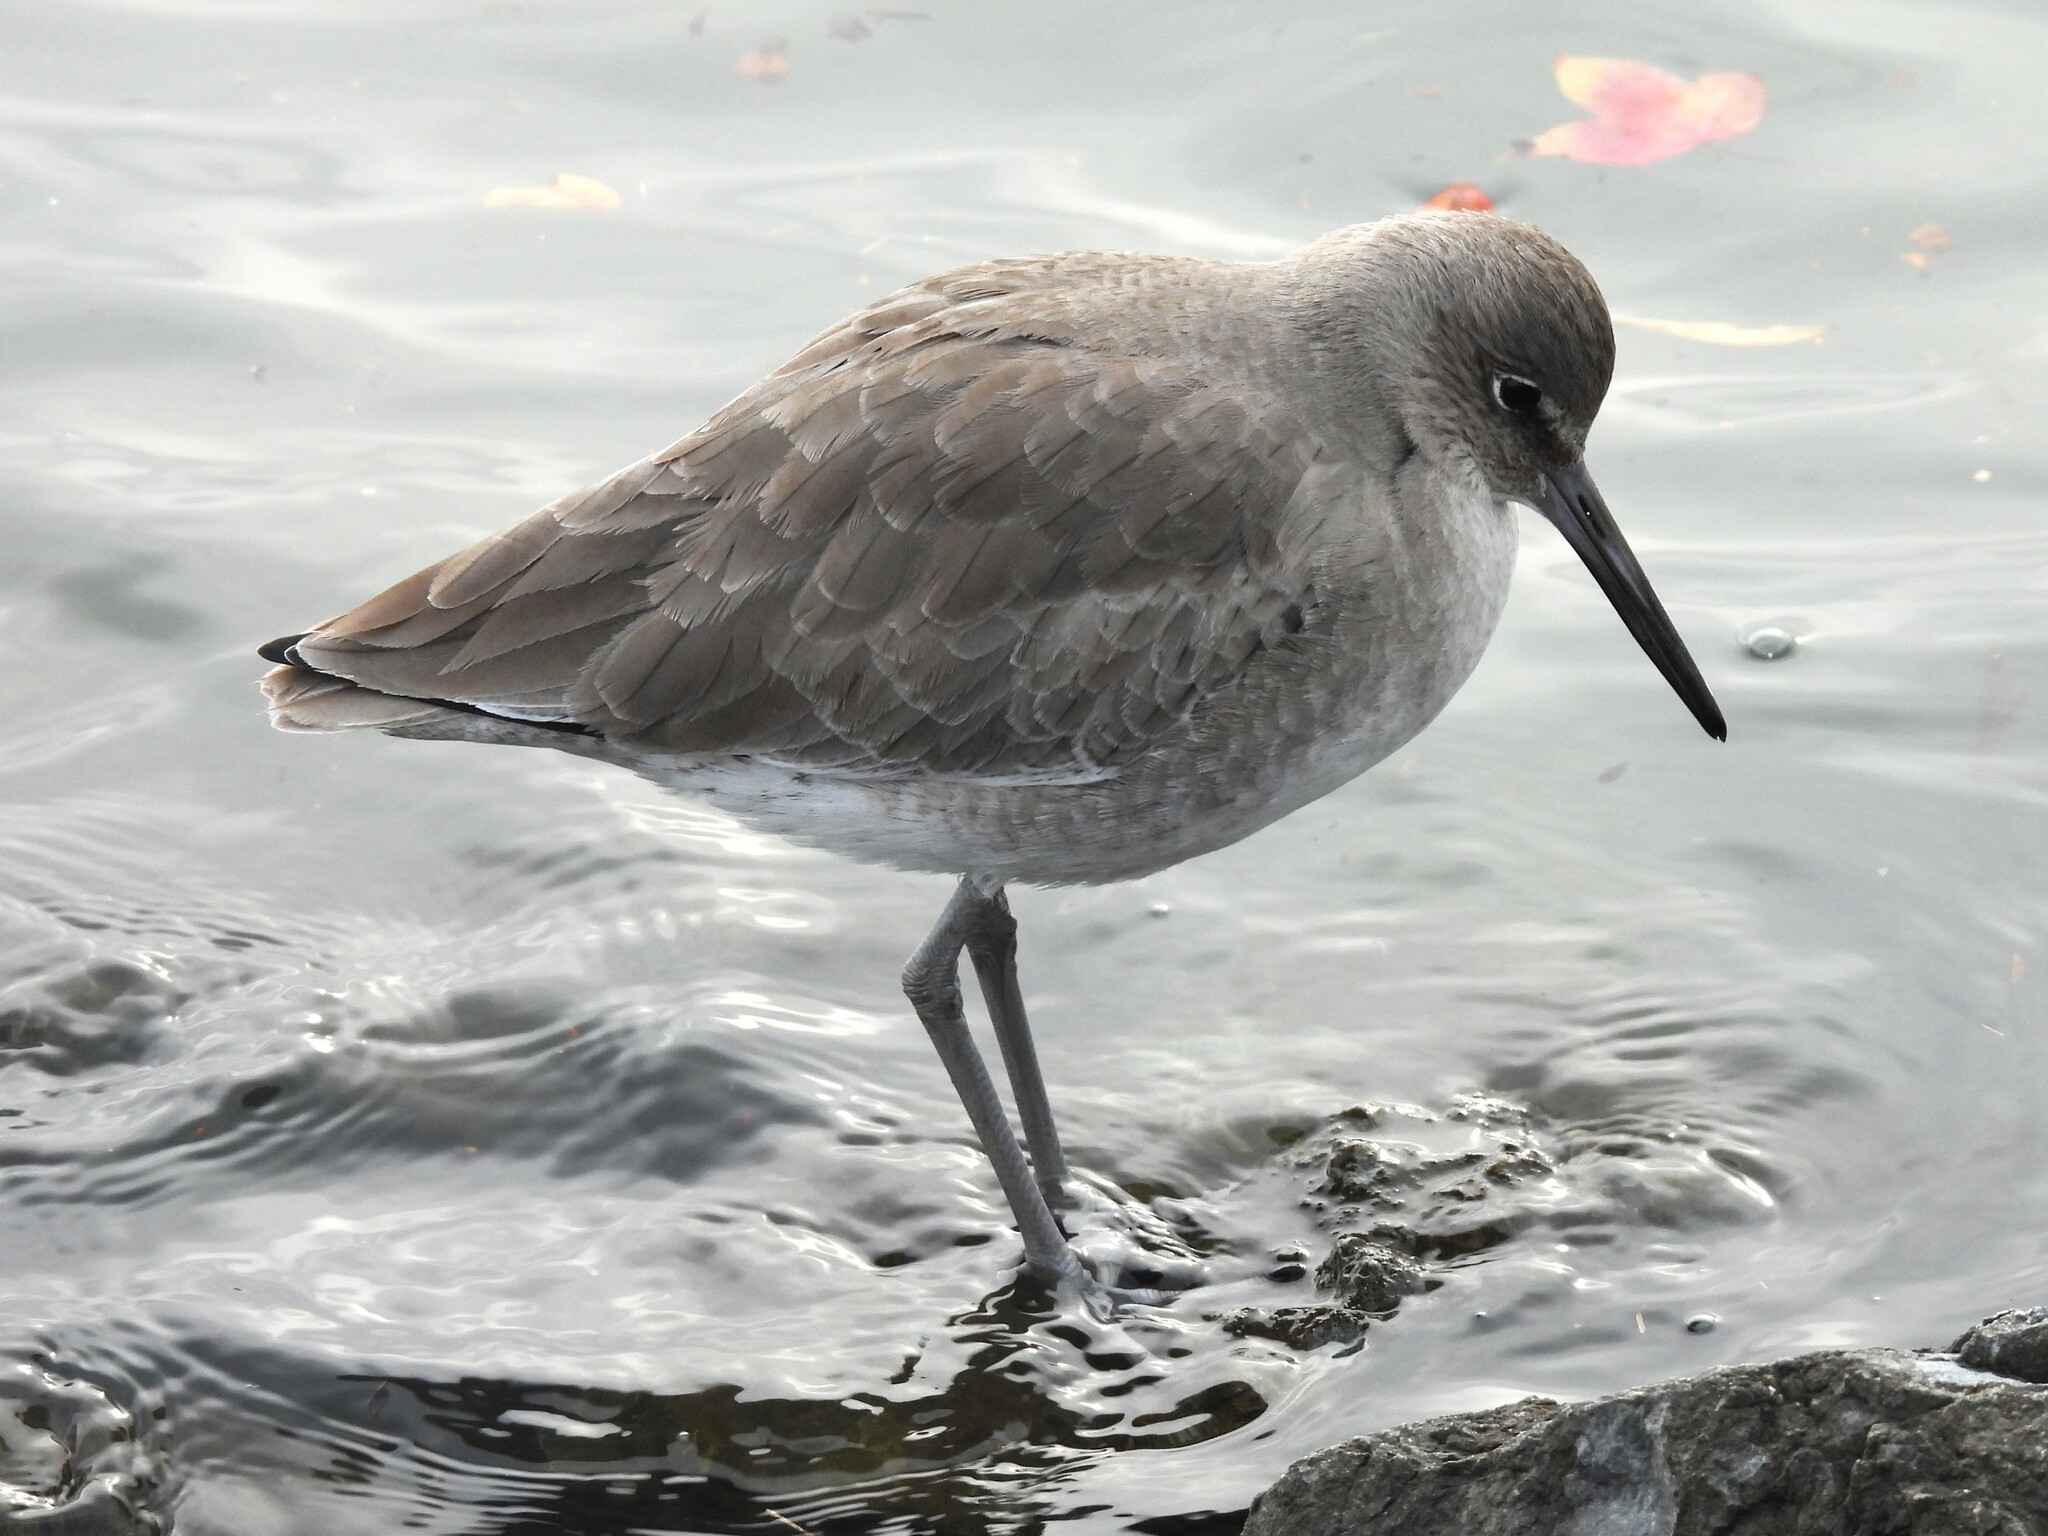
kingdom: Animalia
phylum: Chordata
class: Aves
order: Charadriiformes
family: Scolopacidae
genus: Tringa
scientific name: Tringa semipalmata
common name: Willet
